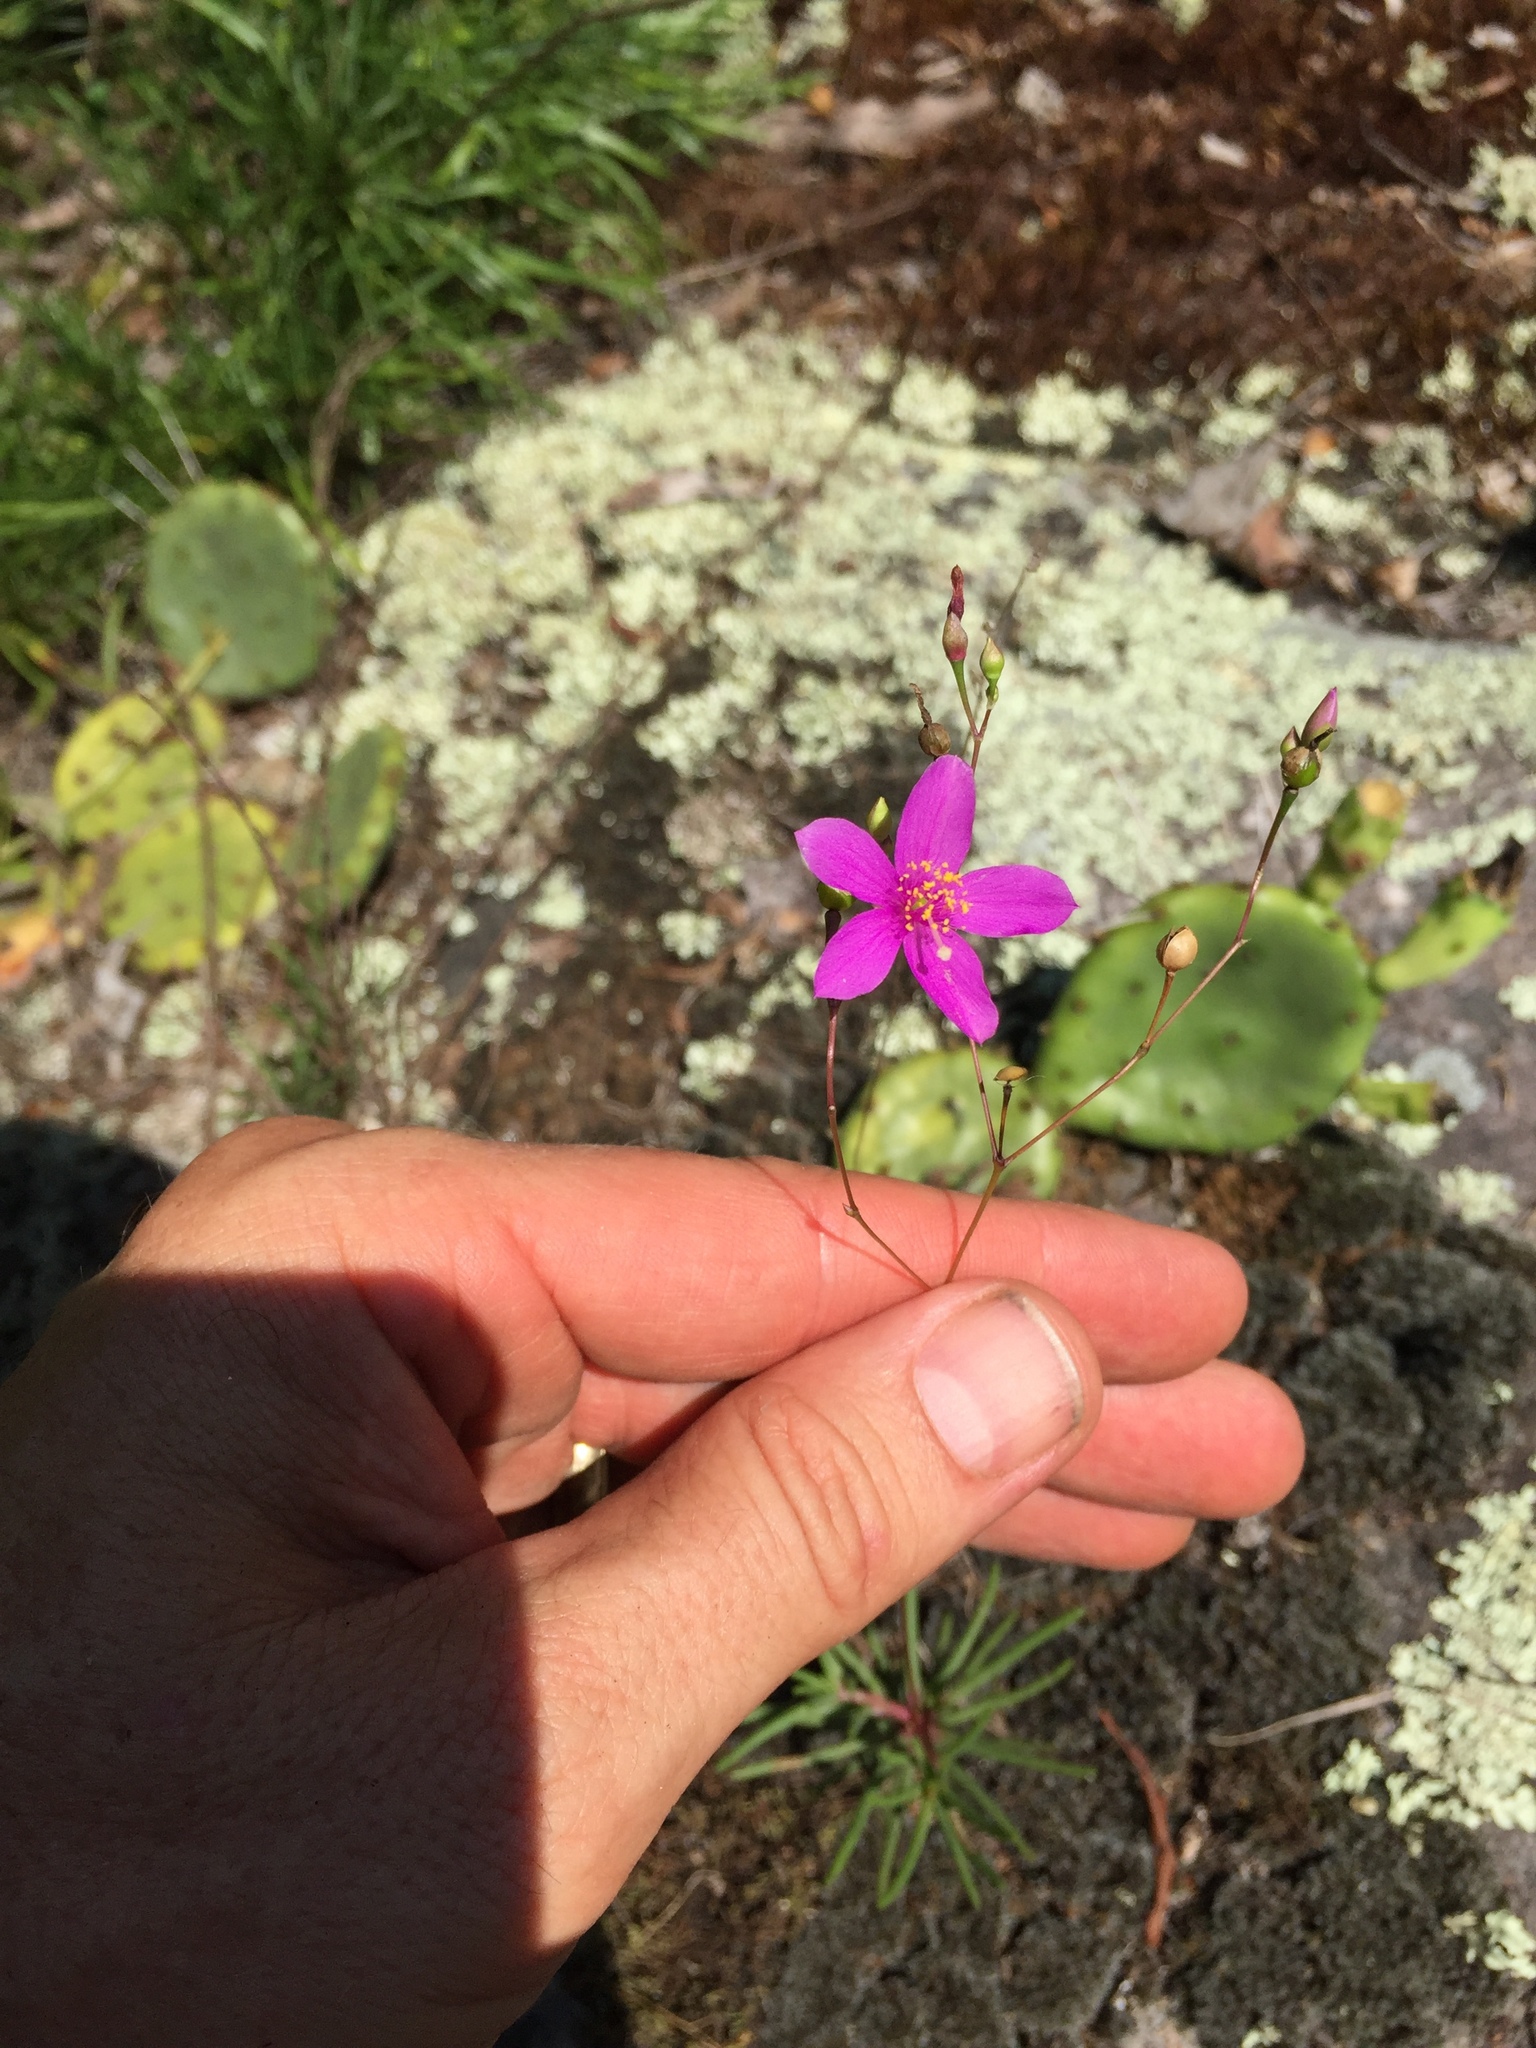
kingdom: Plantae
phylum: Tracheophyta
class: Magnoliopsida
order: Caryophyllales
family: Montiaceae
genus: Phemeranthus
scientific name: Phemeranthus mengesii
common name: Menges' fameflower
